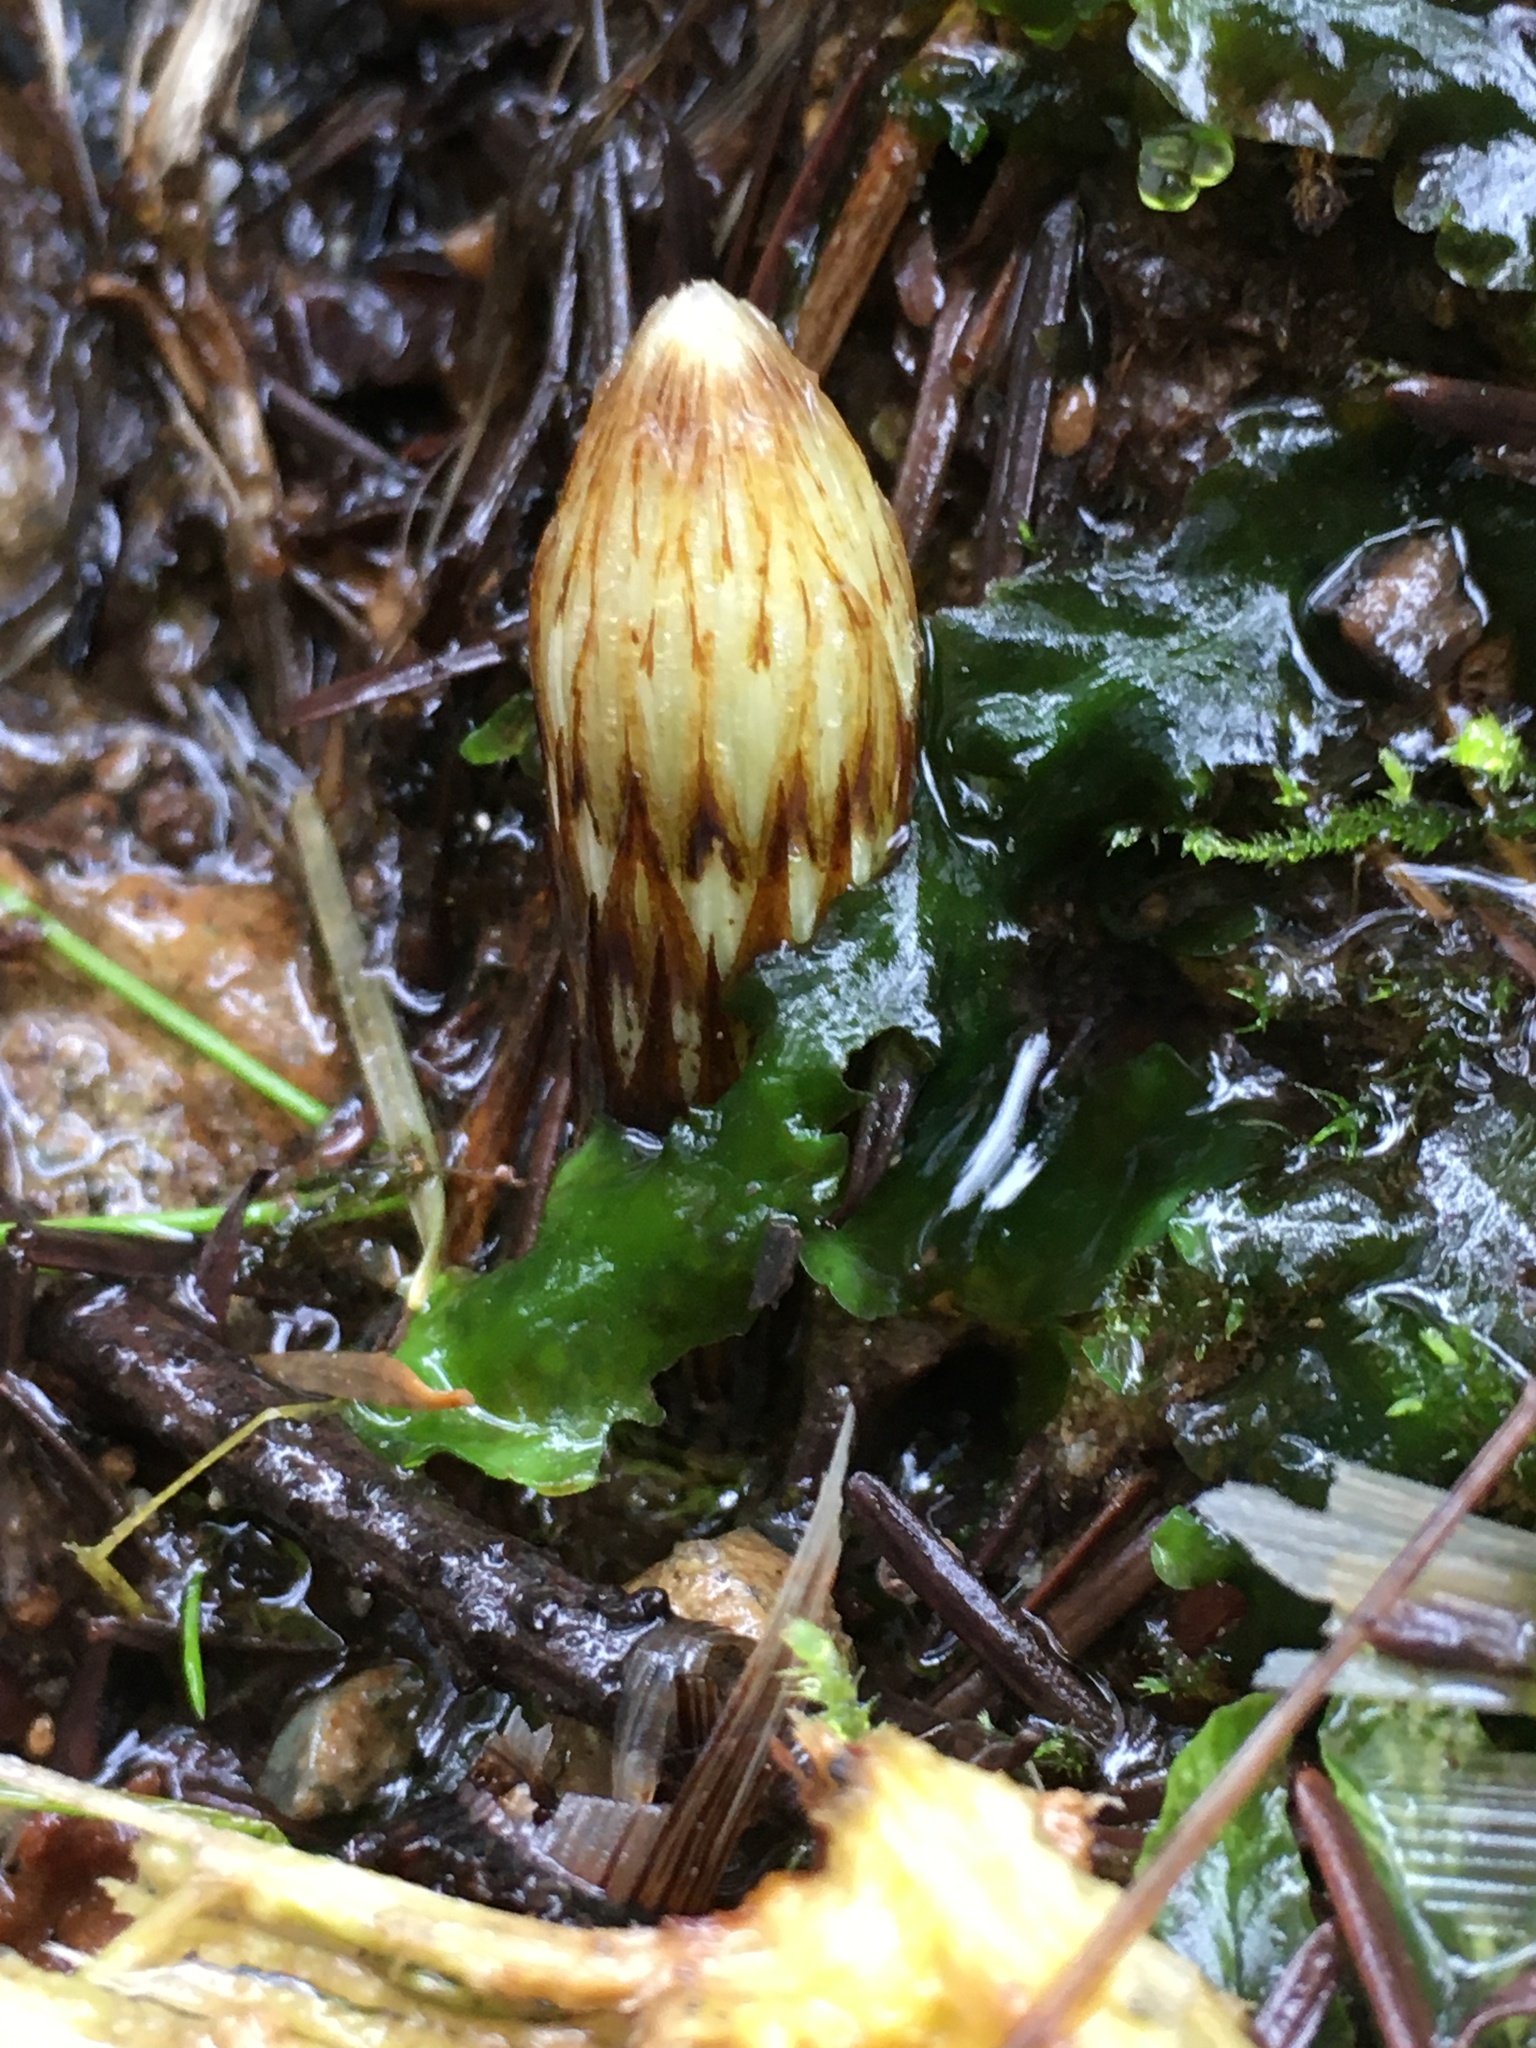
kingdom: Plantae
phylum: Tracheophyta
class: Polypodiopsida
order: Equisetales
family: Equisetaceae
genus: Equisetum
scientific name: Equisetum braunii
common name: Braun's horsetail
